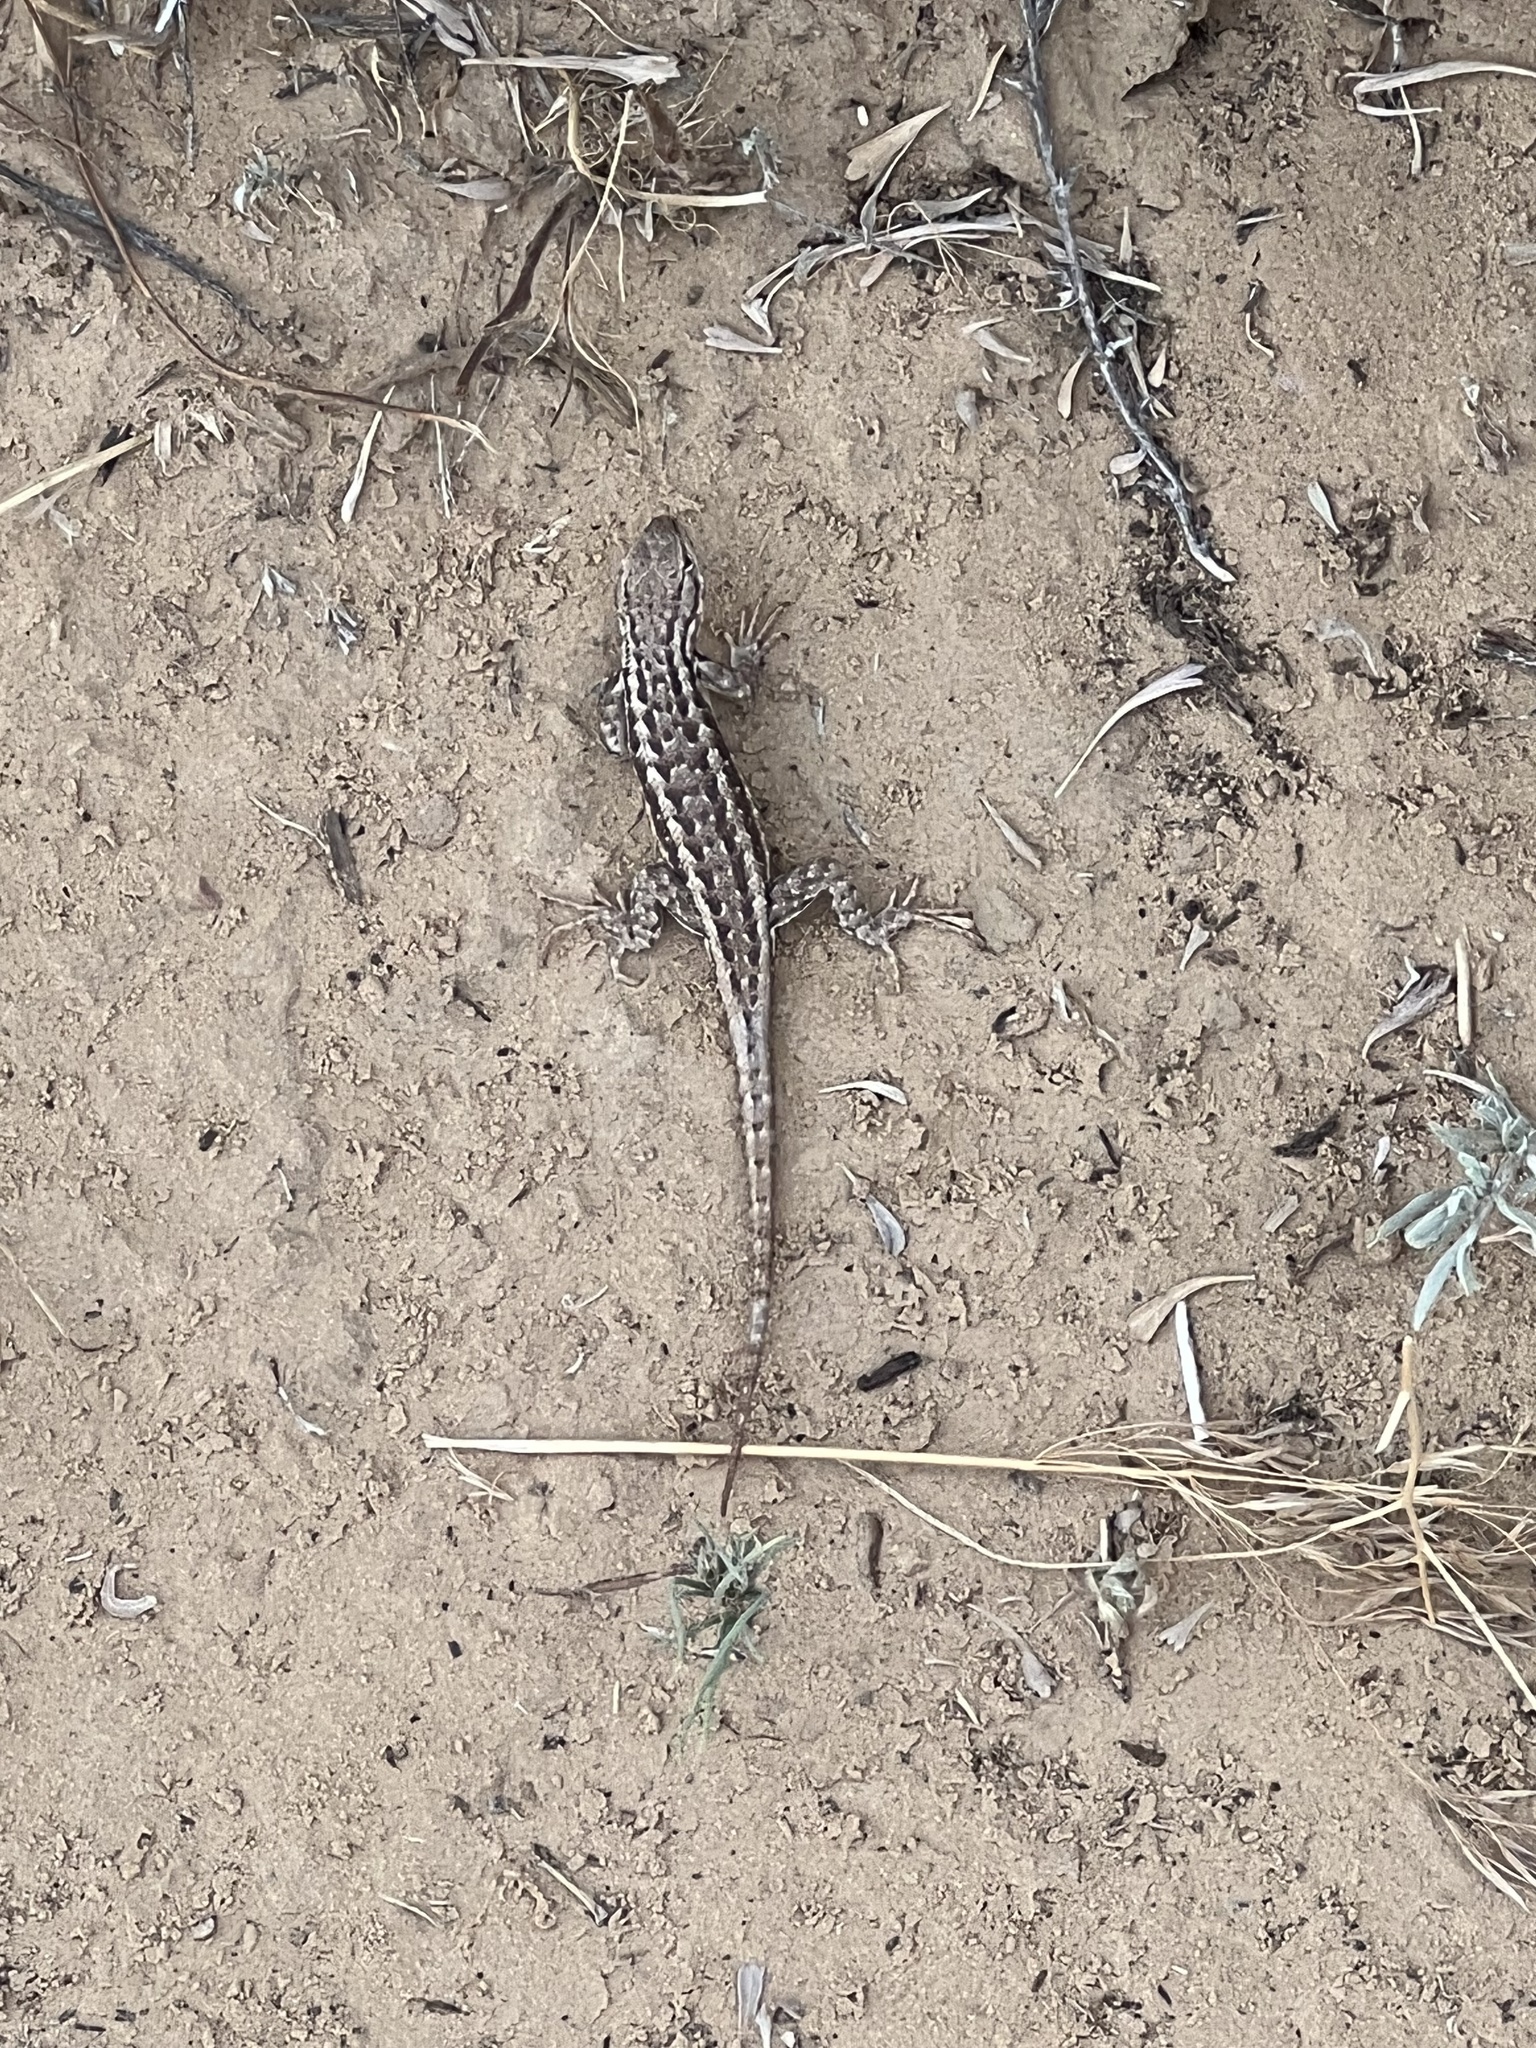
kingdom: Animalia
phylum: Chordata
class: Squamata
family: Phrynosomatidae
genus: Sceloporus
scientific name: Sceloporus graciosus
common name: Sagebrush lizard
